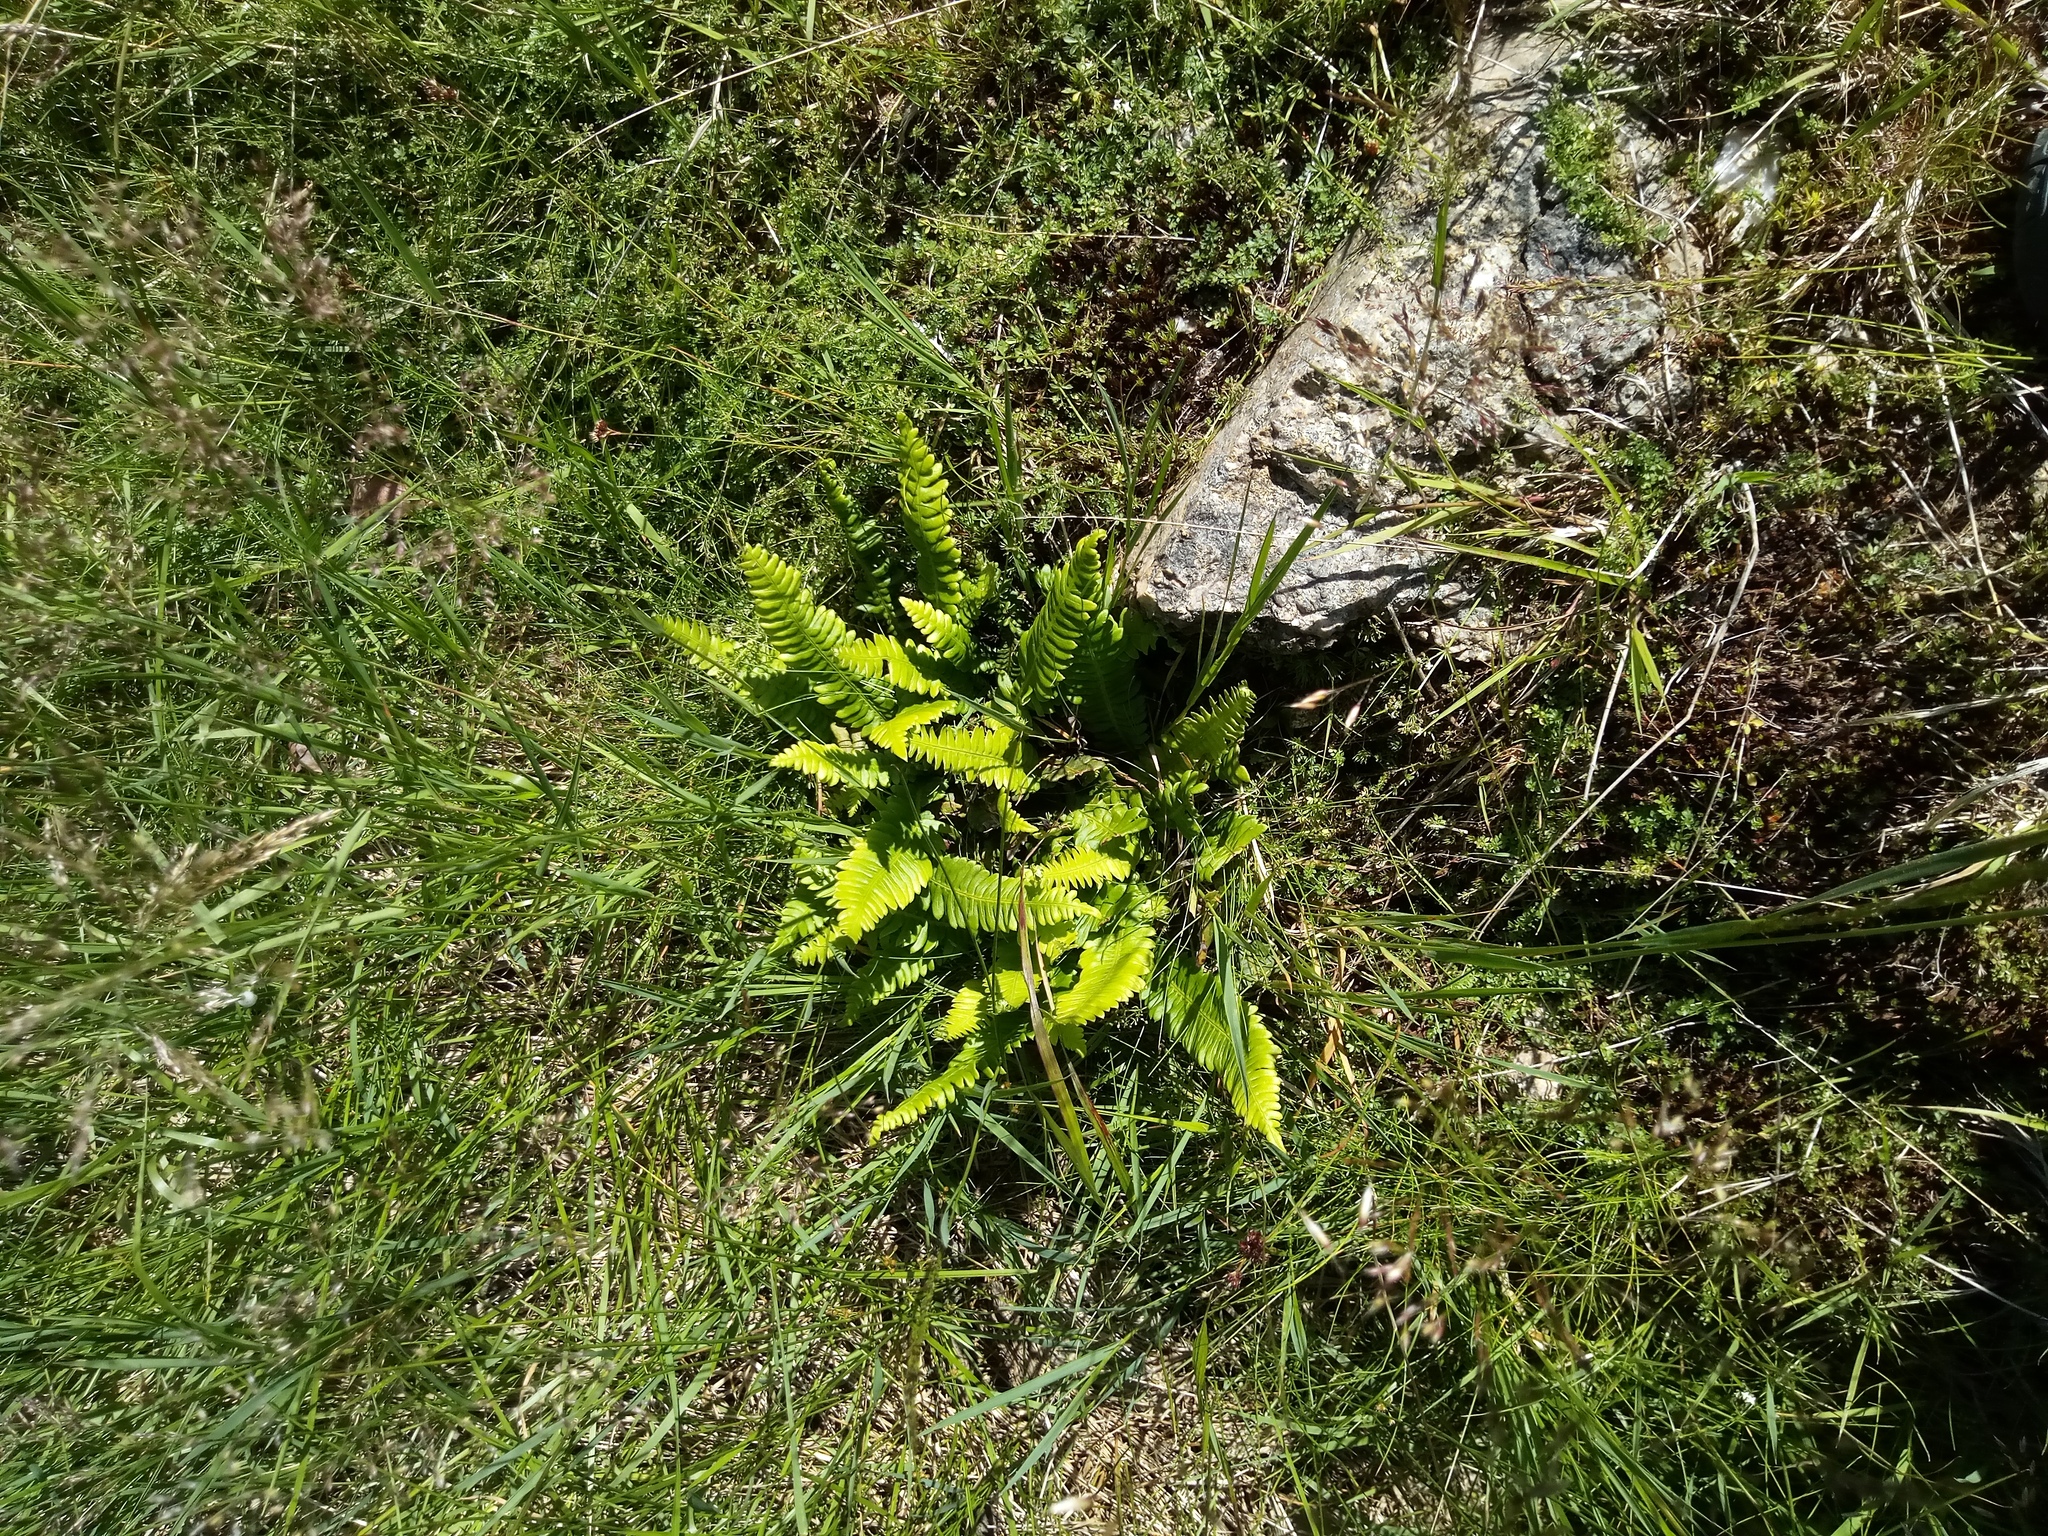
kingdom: Plantae
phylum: Tracheophyta
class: Polypodiopsida
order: Polypodiales
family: Blechnaceae
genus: Struthiopteris
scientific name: Struthiopteris spicant
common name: Deer fern
